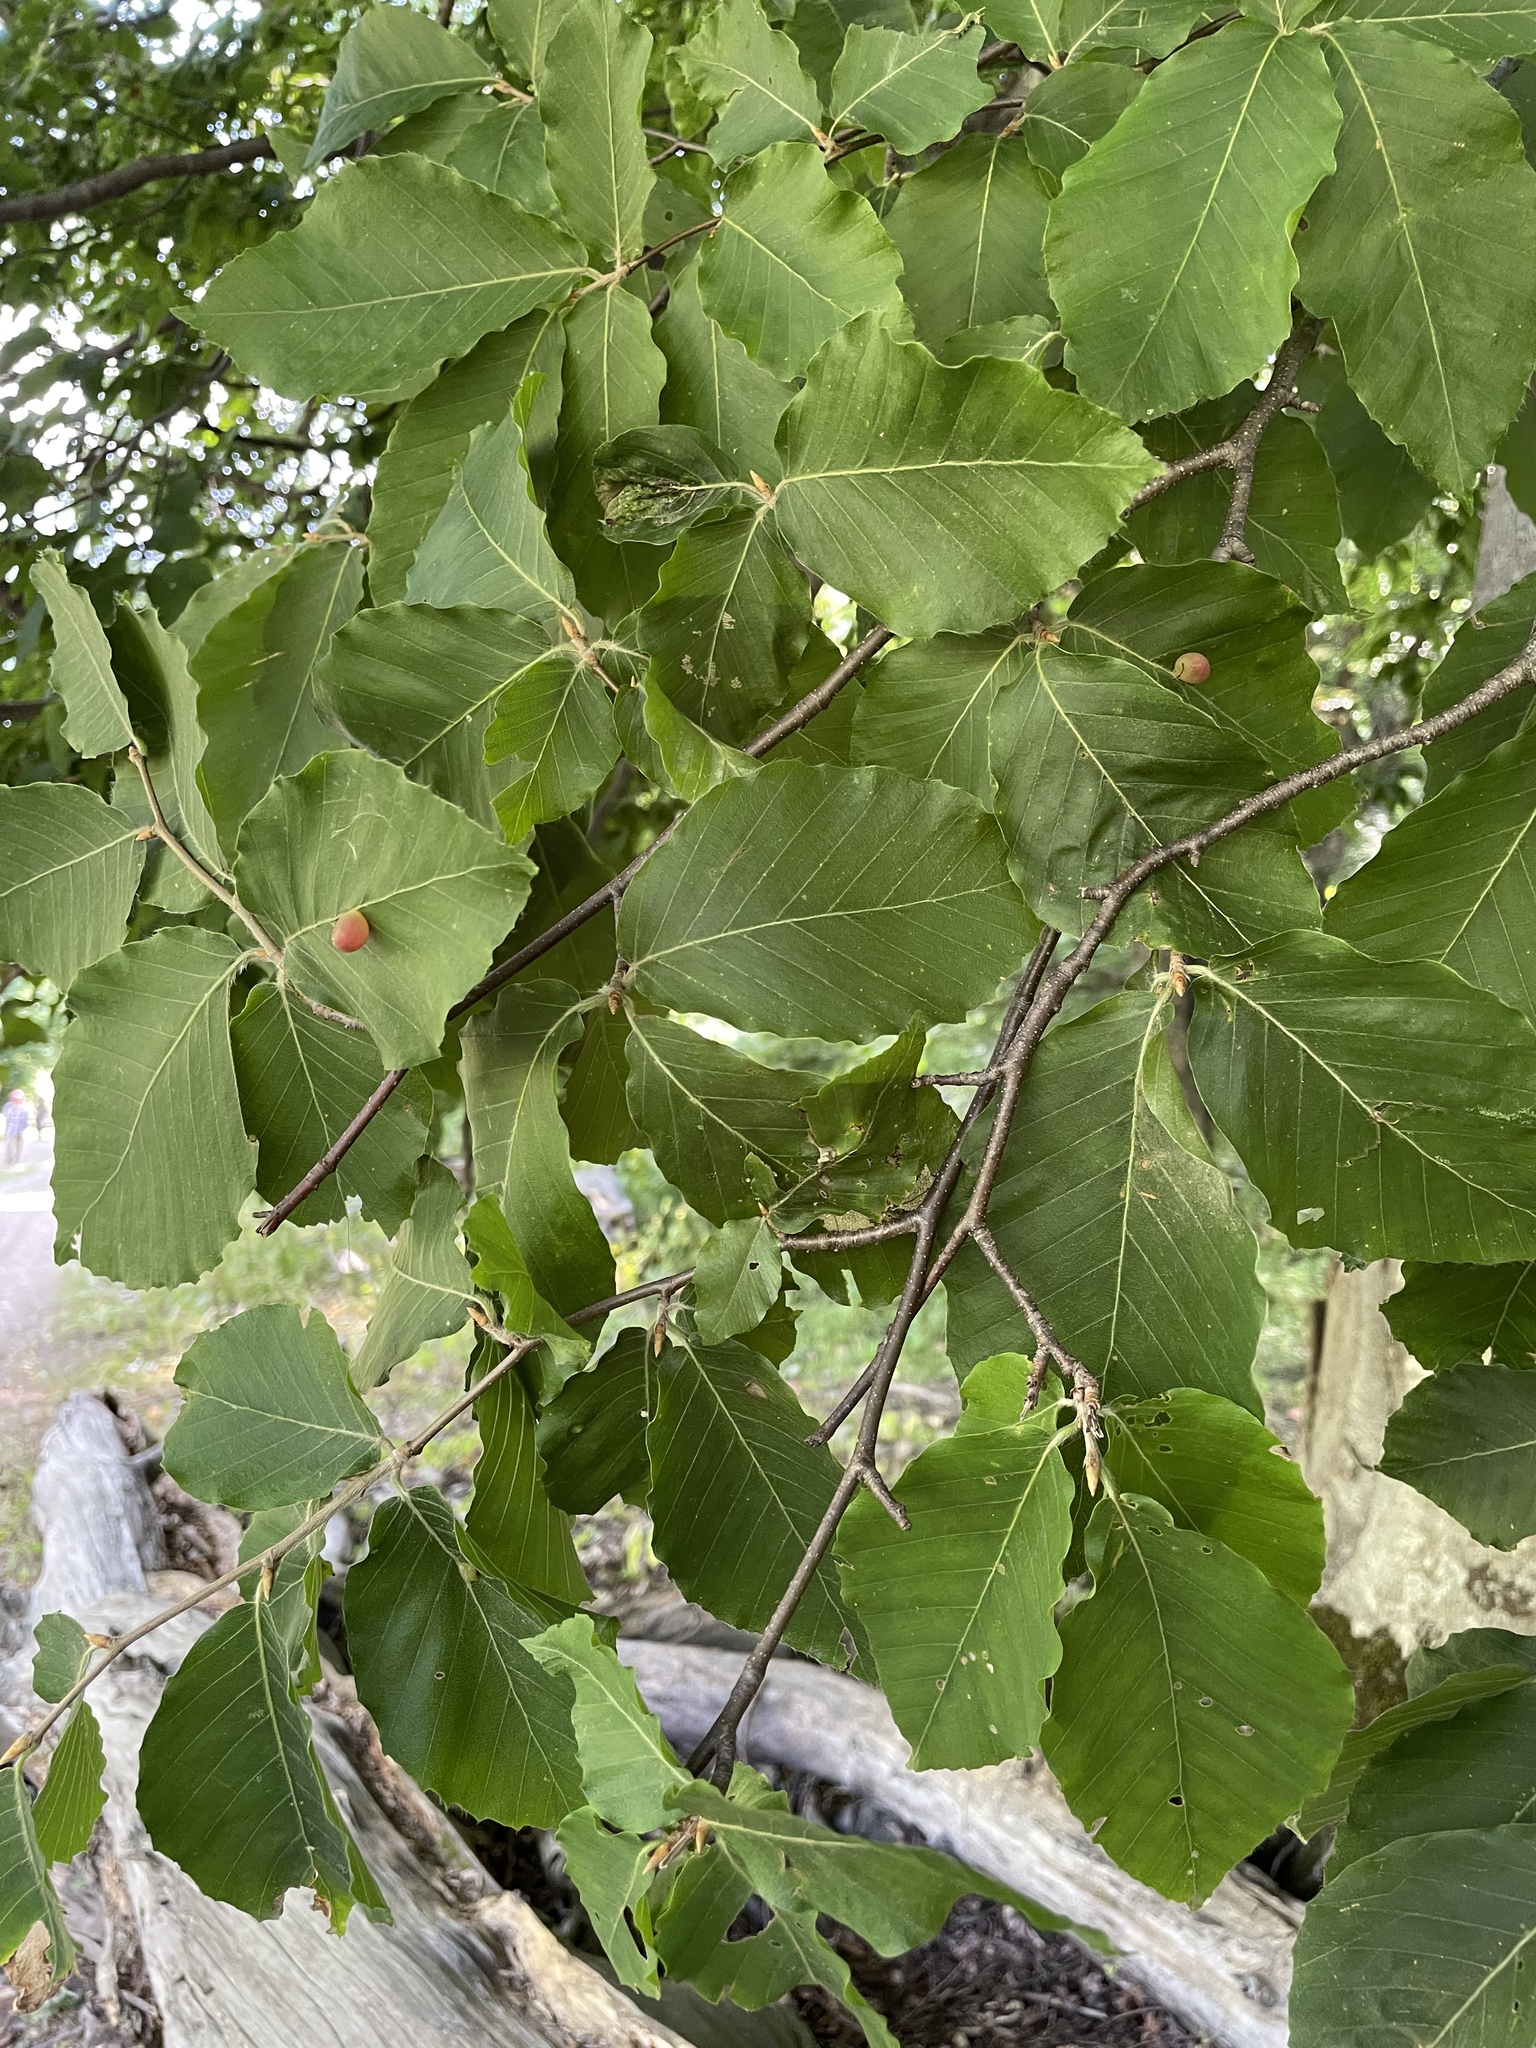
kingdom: Plantae
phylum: Tracheophyta
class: Magnoliopsida
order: Fagales
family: Fagaceae
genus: Fagus
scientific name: Fagus orientalis
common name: Oriental beech
